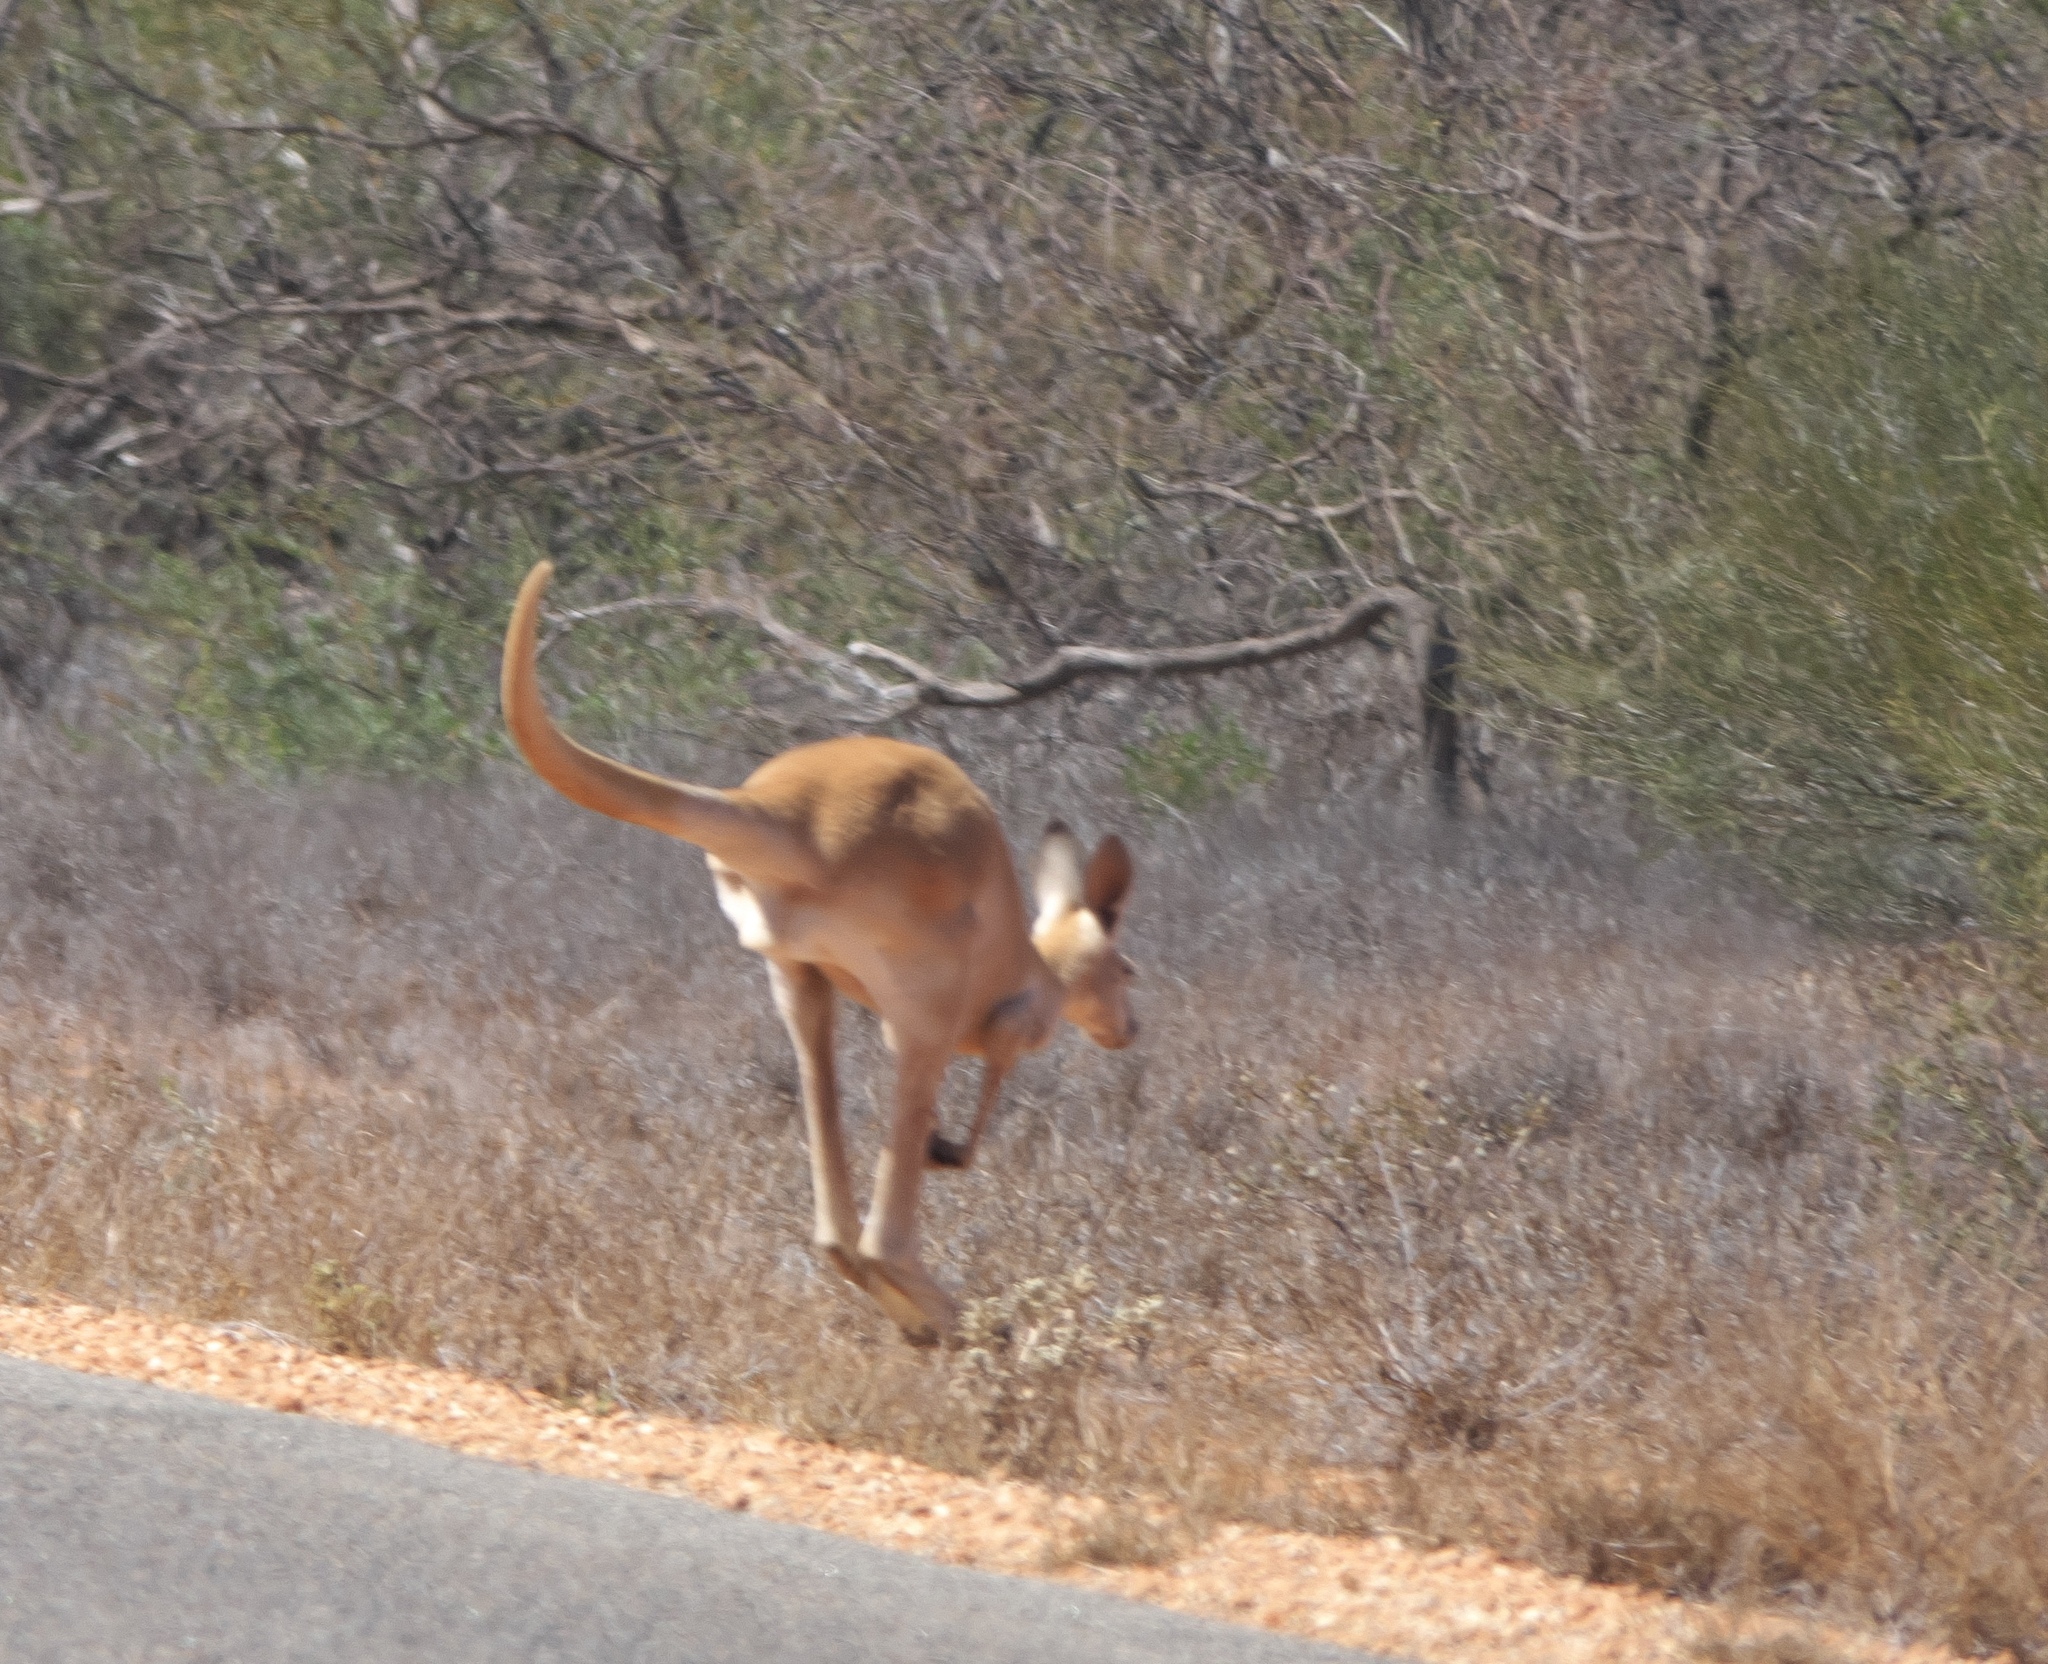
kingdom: Animalia
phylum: Chordata
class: Mammalia
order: Diprotodontia
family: Macropodidae
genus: Macropus
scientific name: Macropus rufus
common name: Red kangaroo
